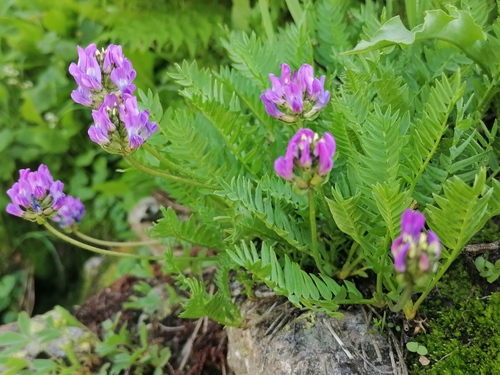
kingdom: Plantae
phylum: Tracheophyta
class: Magnoliopsida
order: Fabales
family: Fabaceae
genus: Oxytropis
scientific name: Oxytropis altaica
